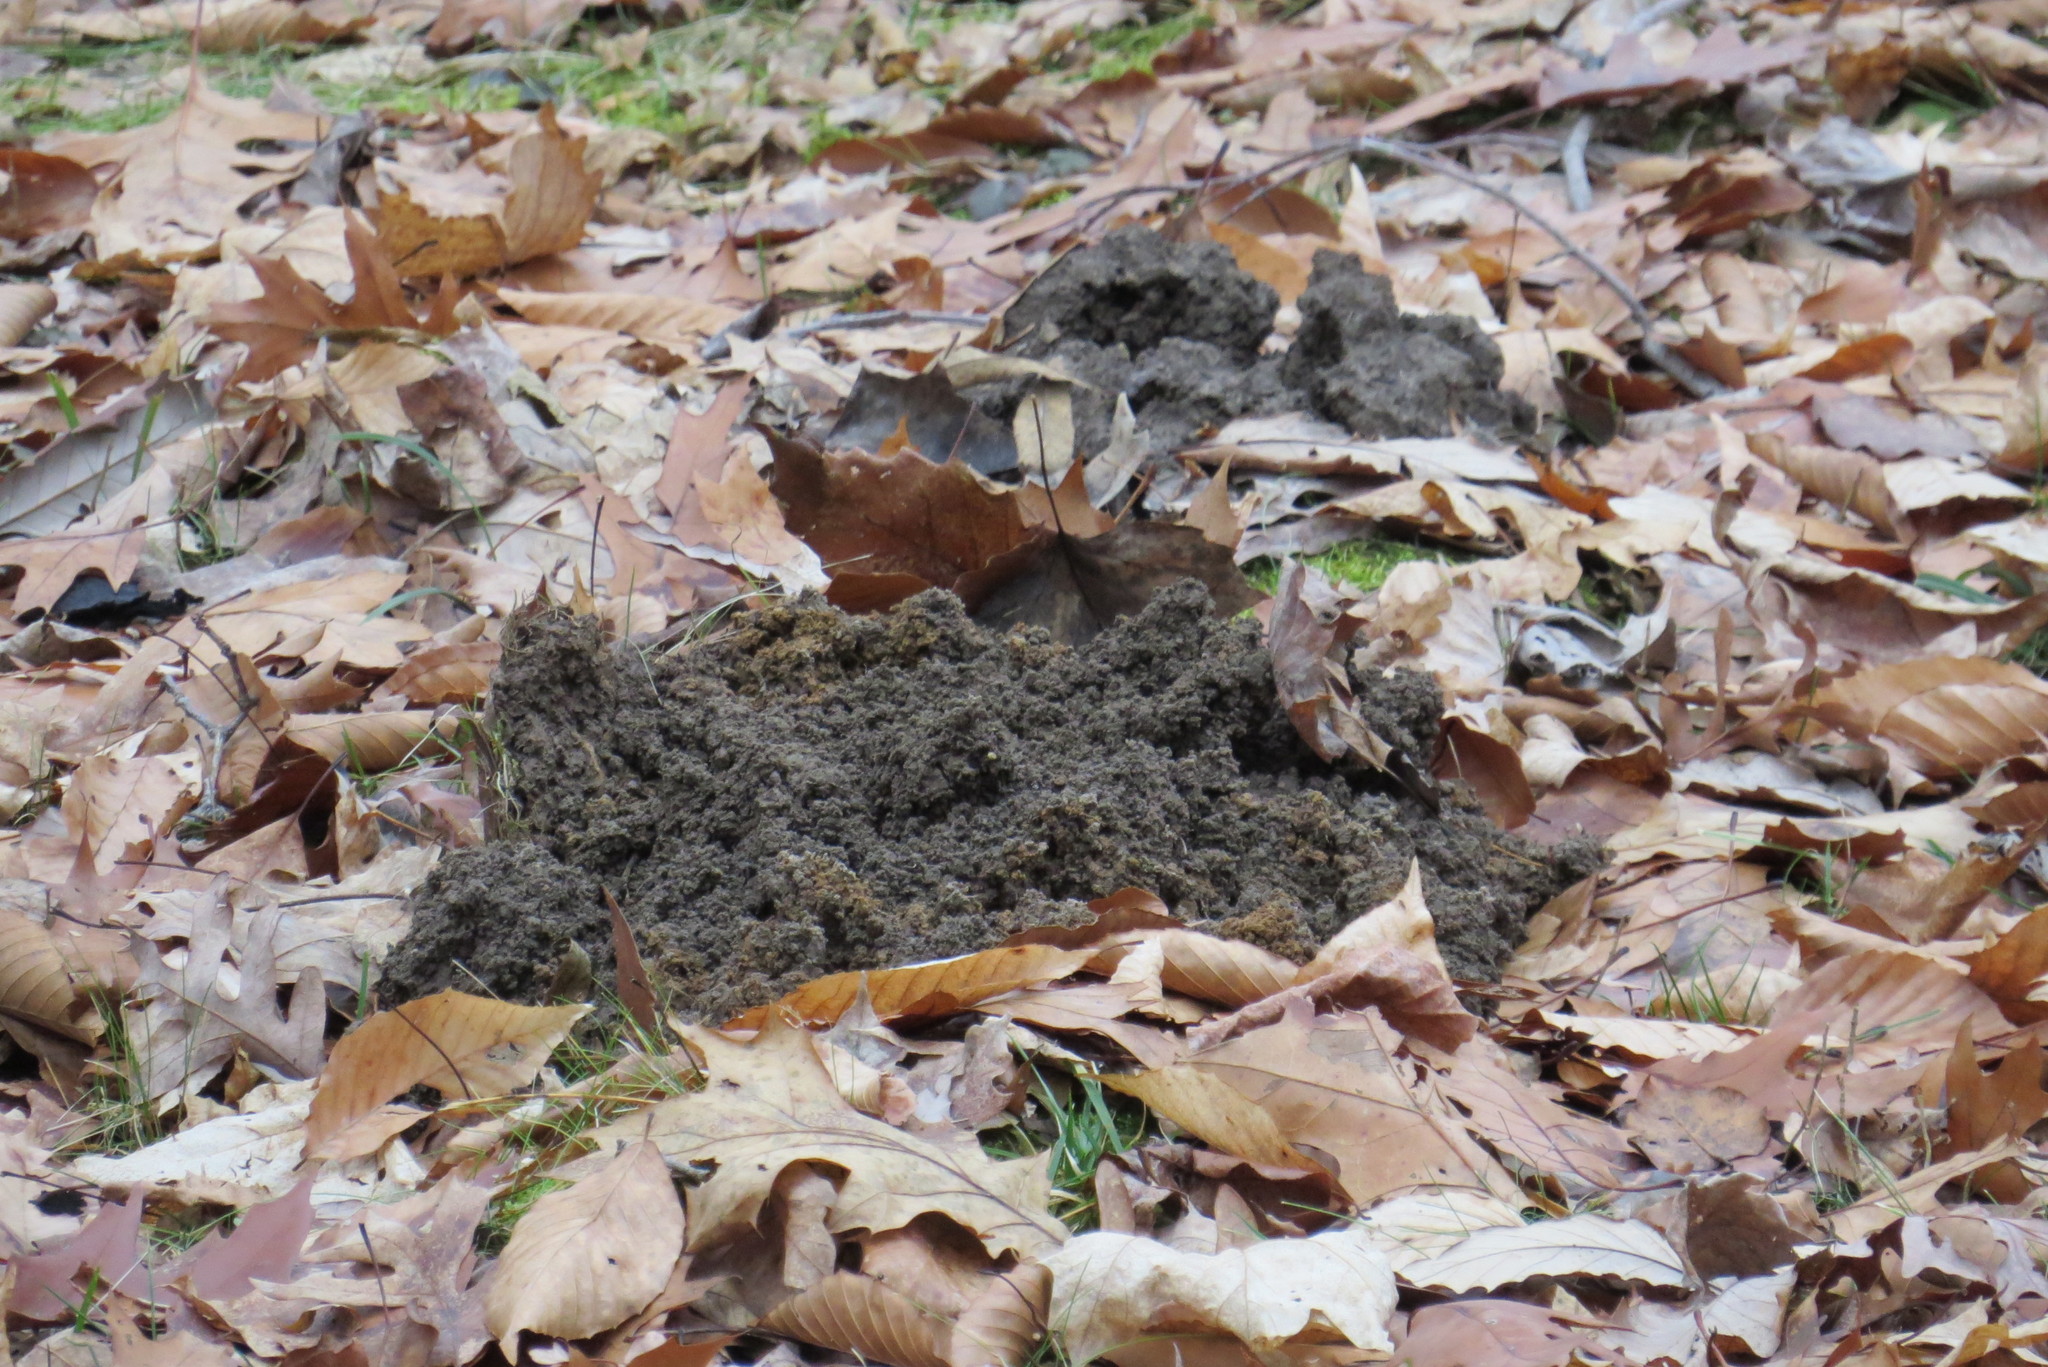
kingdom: Animalia
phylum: Chordata
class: Mammalia
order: Soricomorpha
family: Talpidae
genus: Scalopus
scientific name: Scalopus aquaticus
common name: Eastern mole
